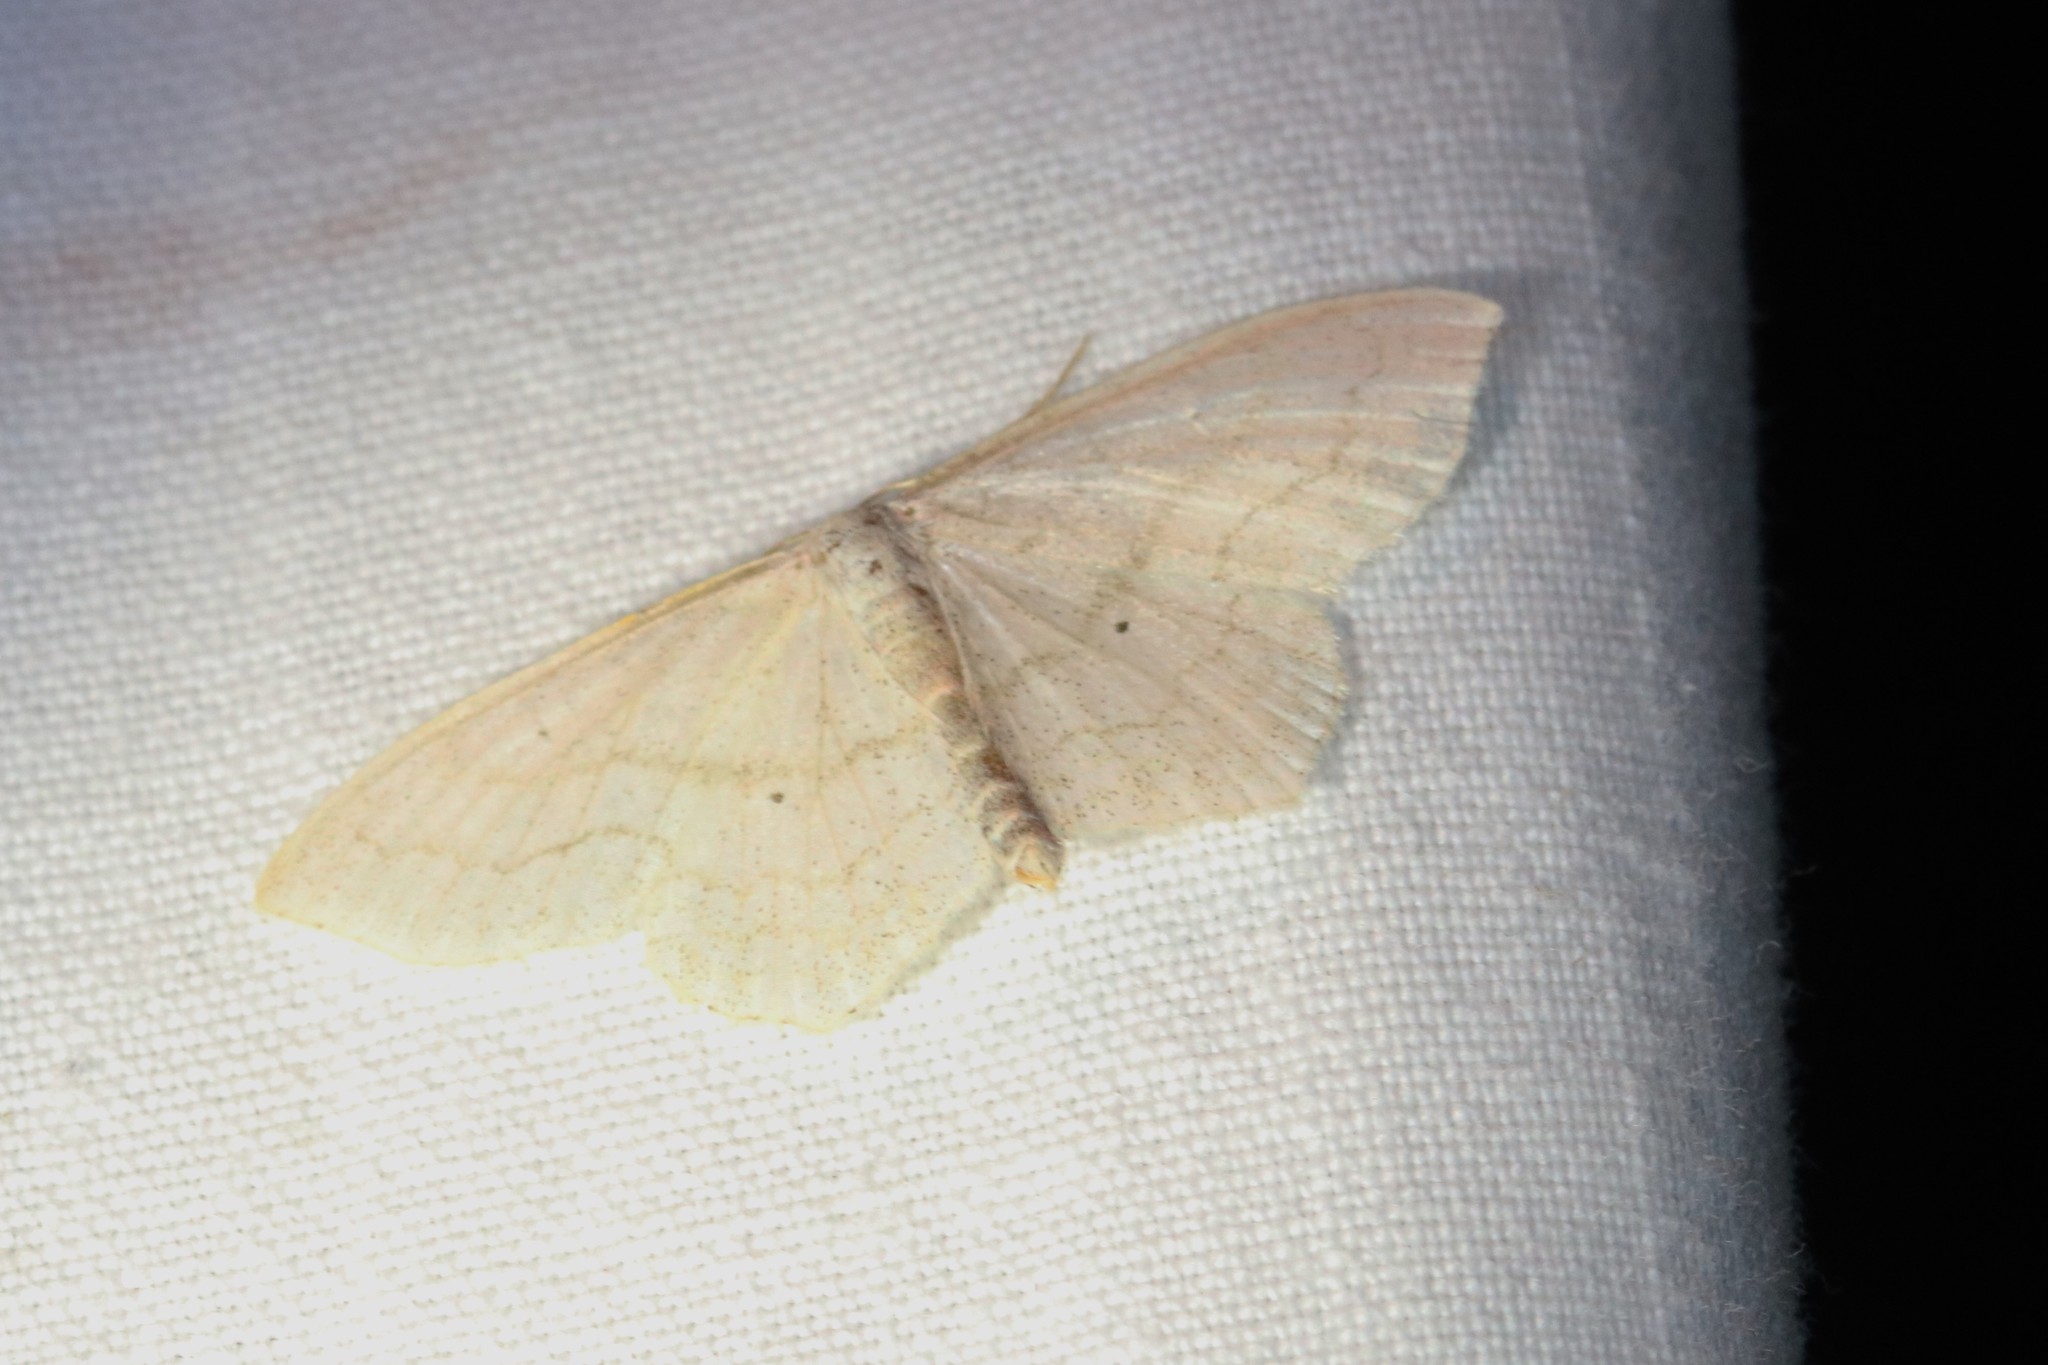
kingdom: Animalia
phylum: Arthropoda
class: Insecta
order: Lepidoptera
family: Geometridae
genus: Scopula
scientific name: Scopula limboundata
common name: Large lace border
